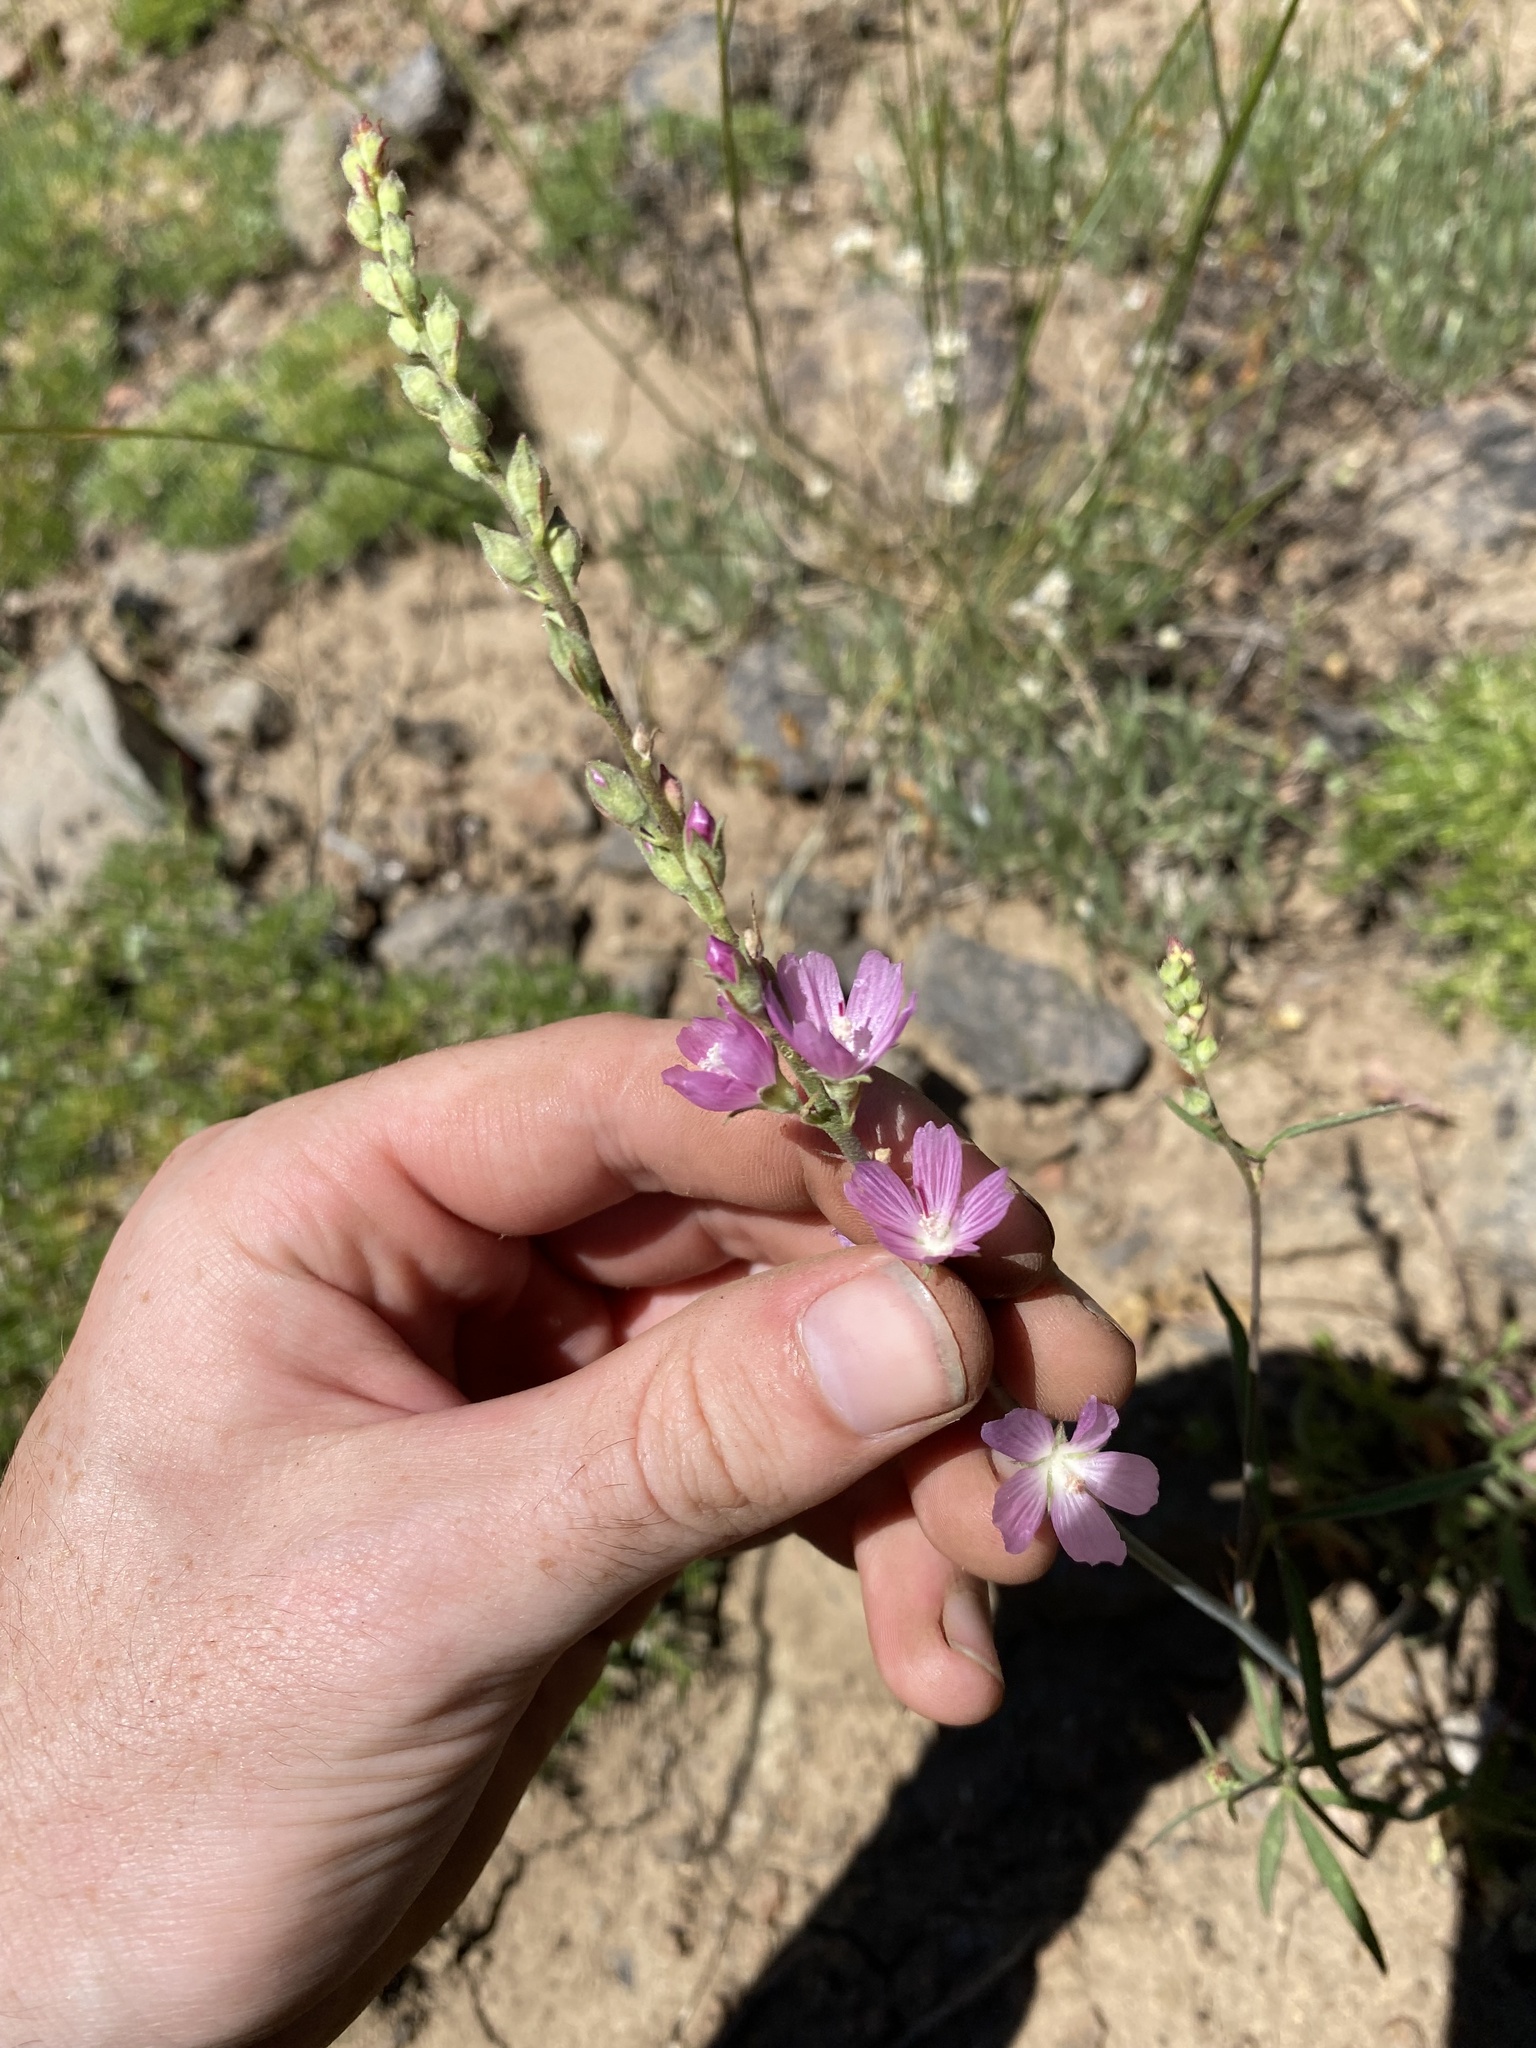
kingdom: Plantae
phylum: Tracheophyta
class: Magnoliopsida
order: Malvales
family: Malvaceae
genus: Sidalcea
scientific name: Sidalcea oregana
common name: Oregon checker-mallow
